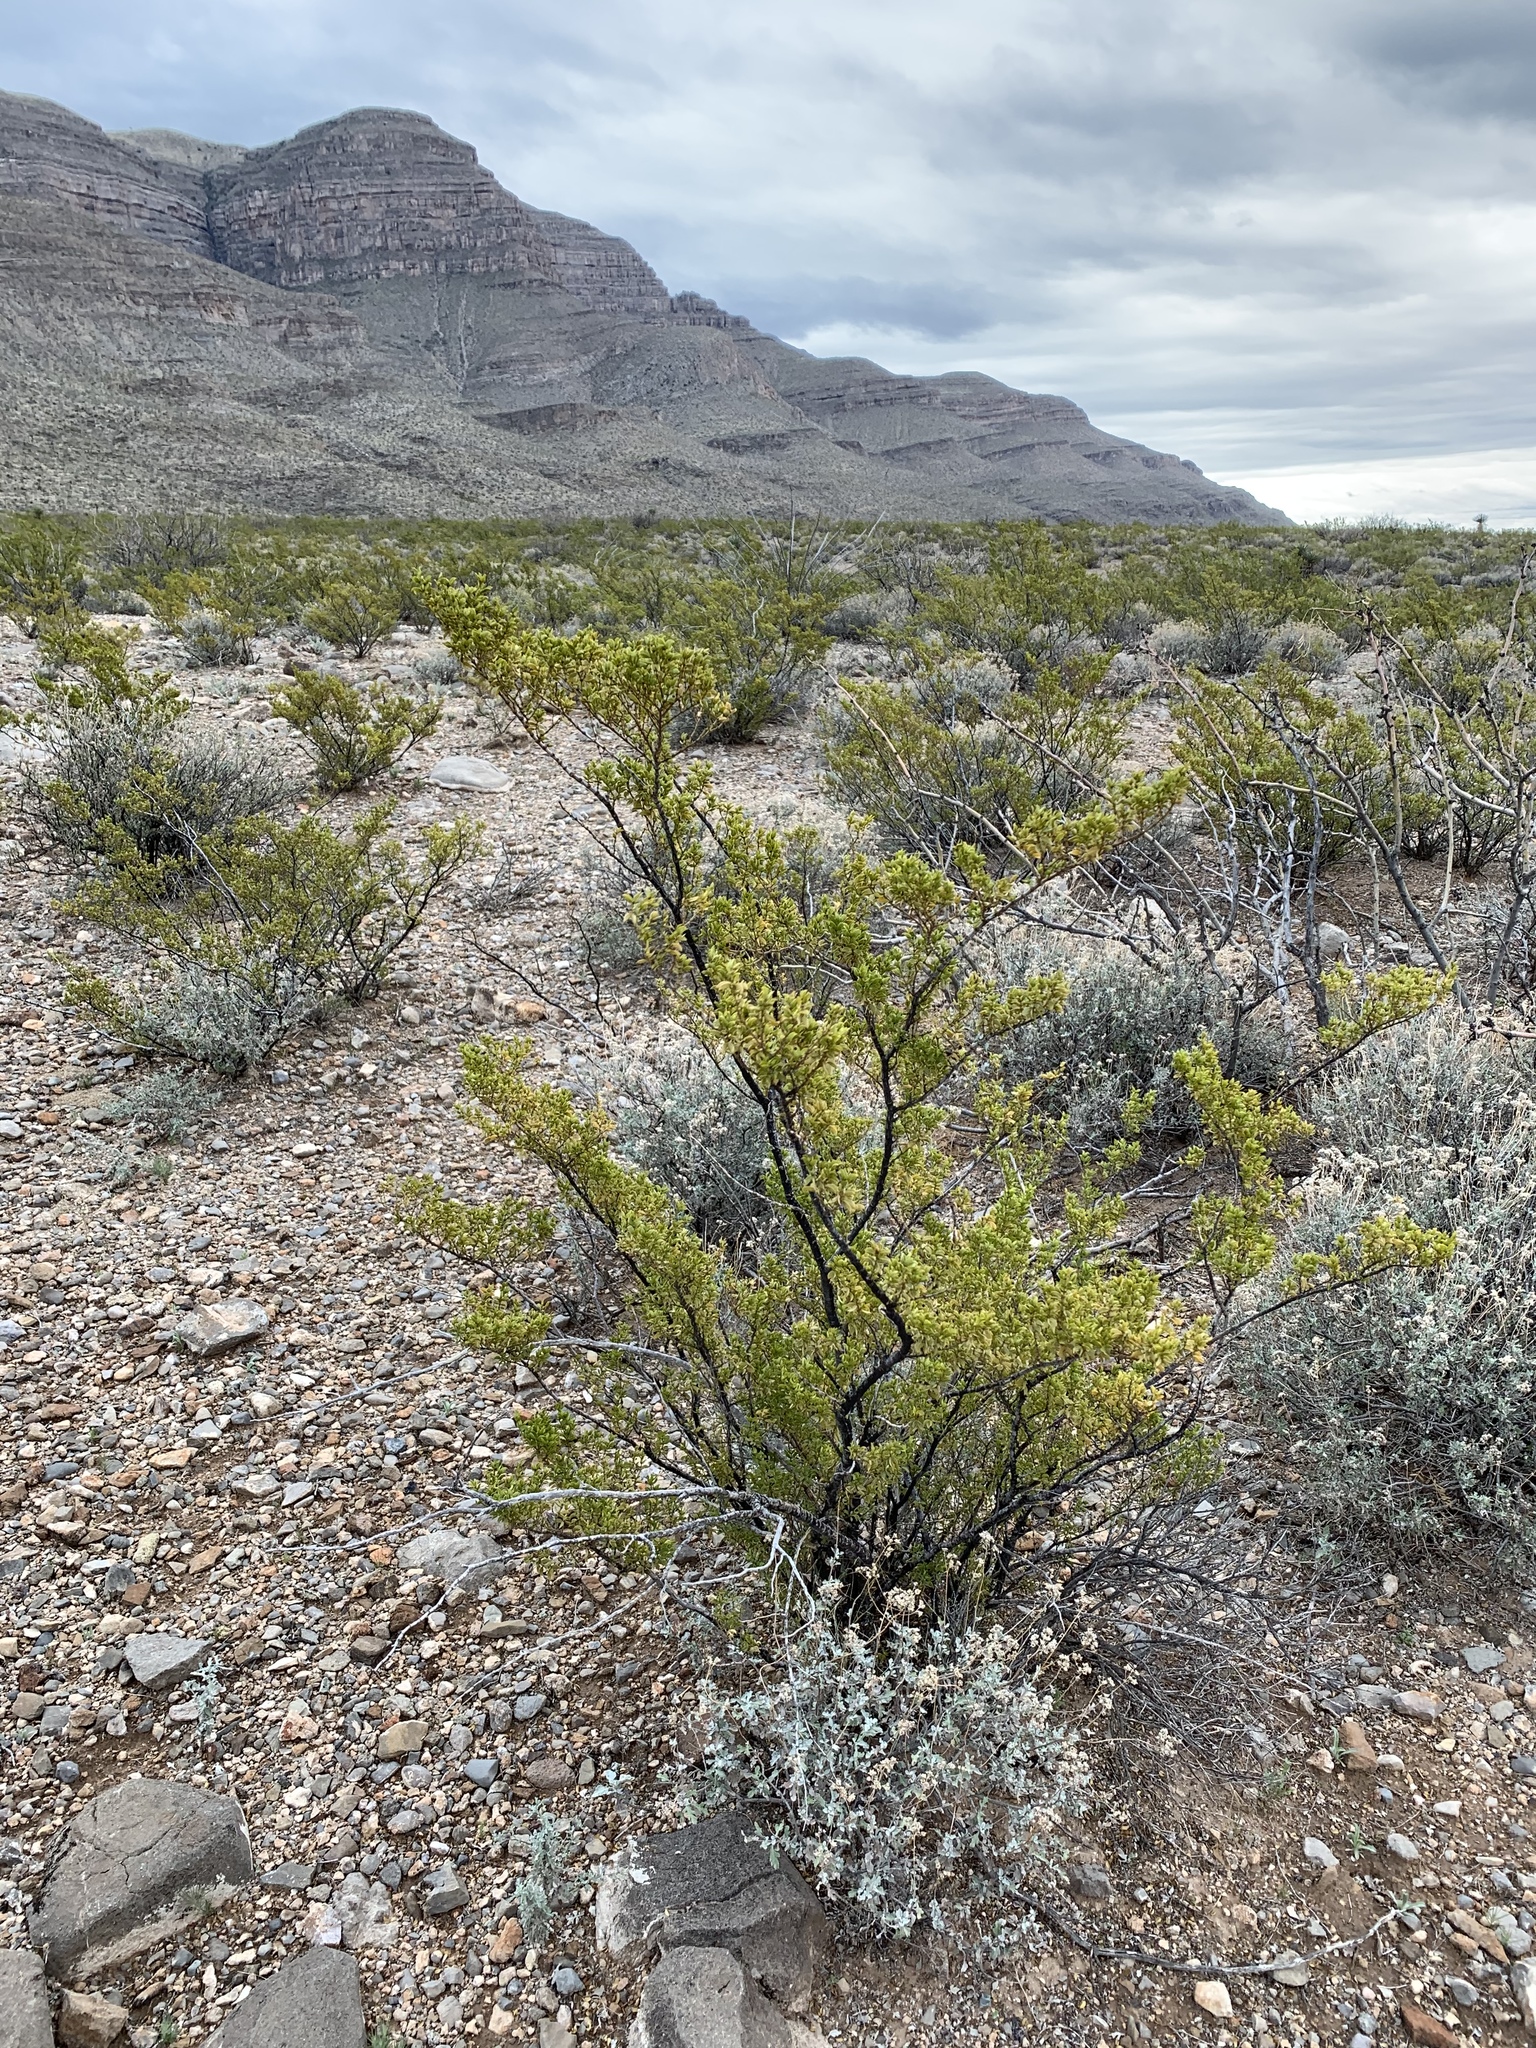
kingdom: Plantae
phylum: Tracheophyta
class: Magnoliopsida
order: Zygophyllales
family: Zygophyllaceae
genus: Larrea
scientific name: Larrea tridentata
